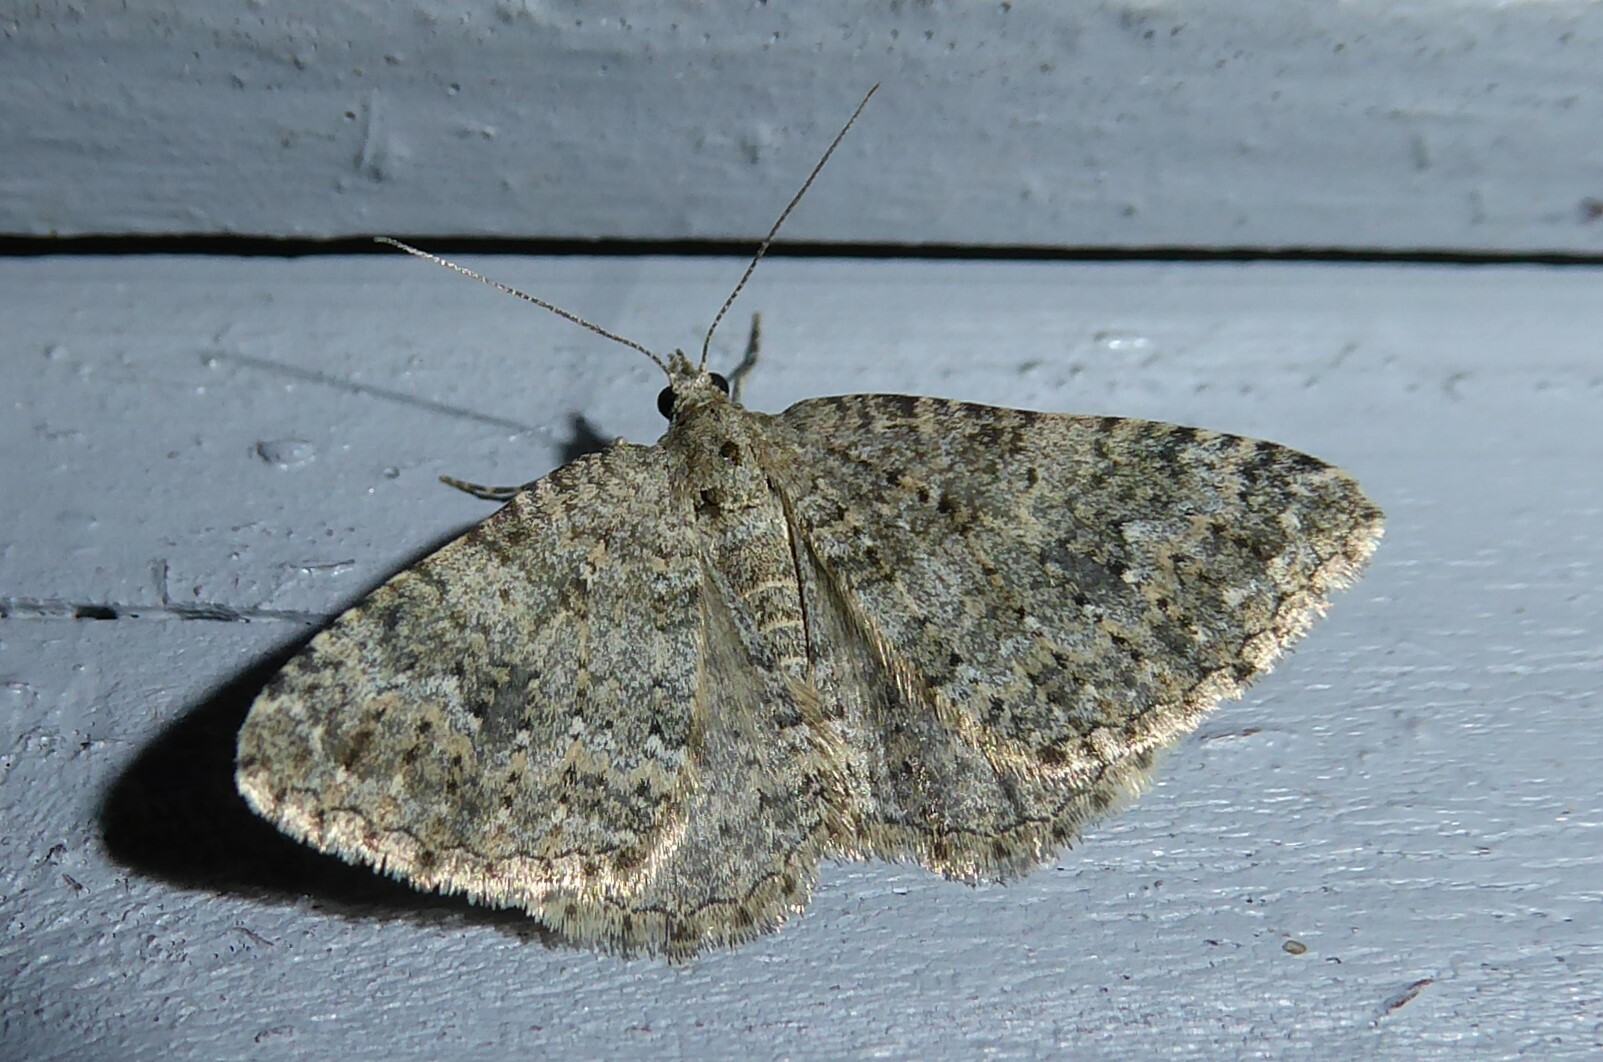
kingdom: Animalia
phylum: Arthropoda
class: Insecta
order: Lepidoptera
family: Geometridae
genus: Helastia
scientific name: Helastia corcularia
